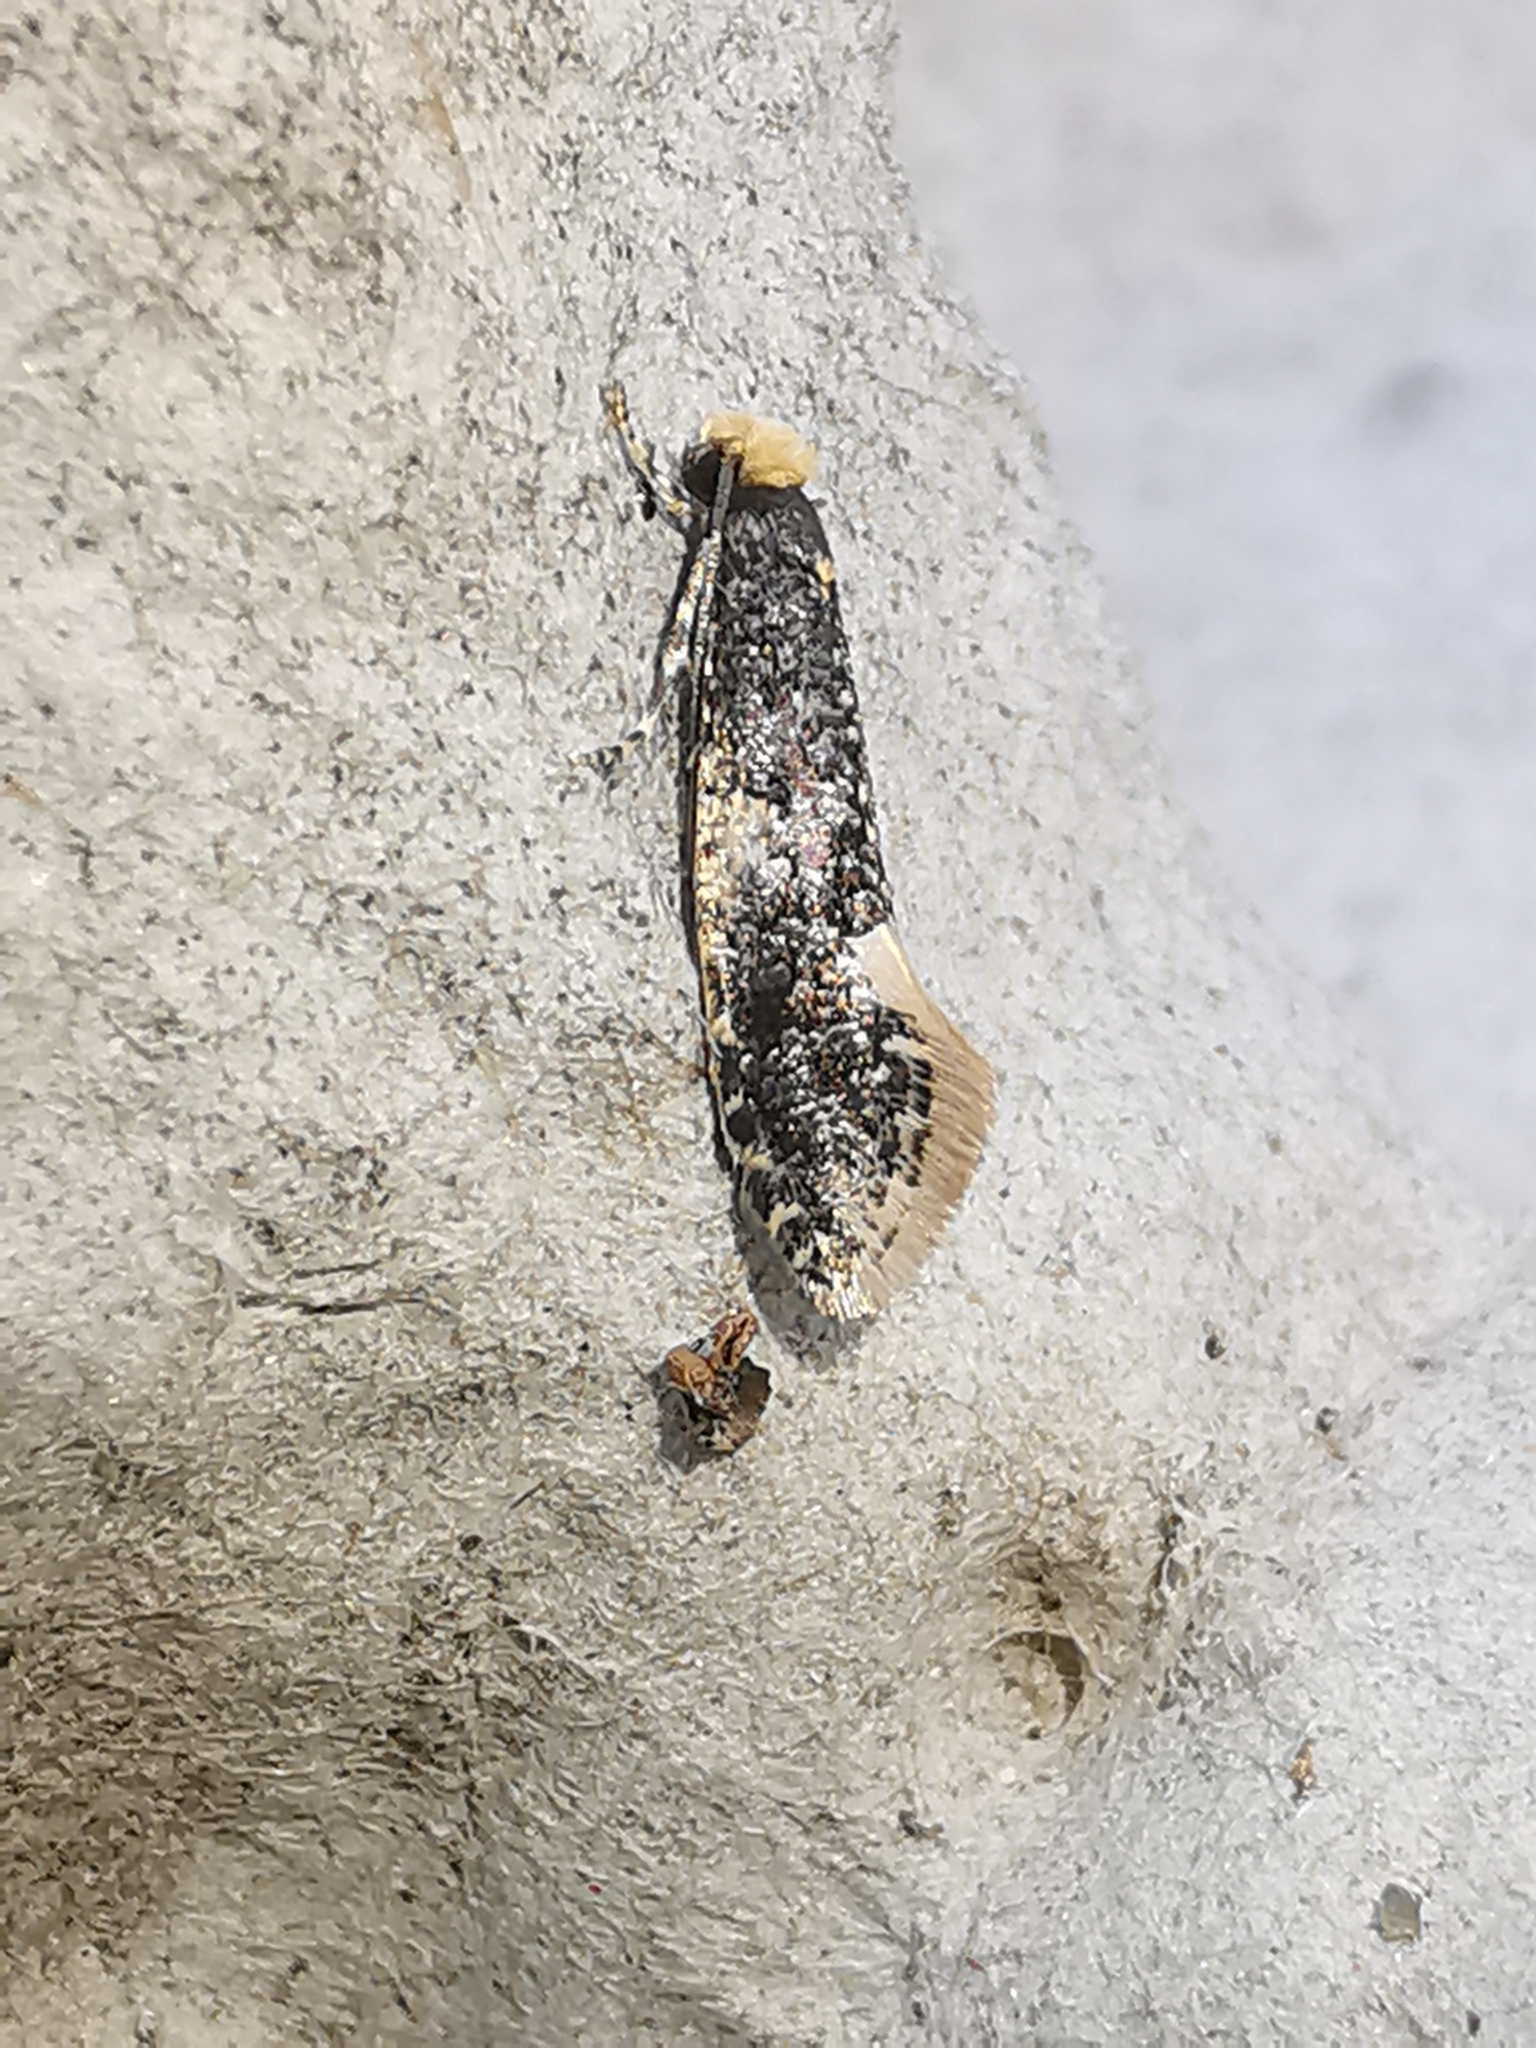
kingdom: Animalia
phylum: Arthropoda
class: Insecta
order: Lepidoptera
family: Tineidae
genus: Monopis
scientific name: Monopis weaverella
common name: Carrion moth
